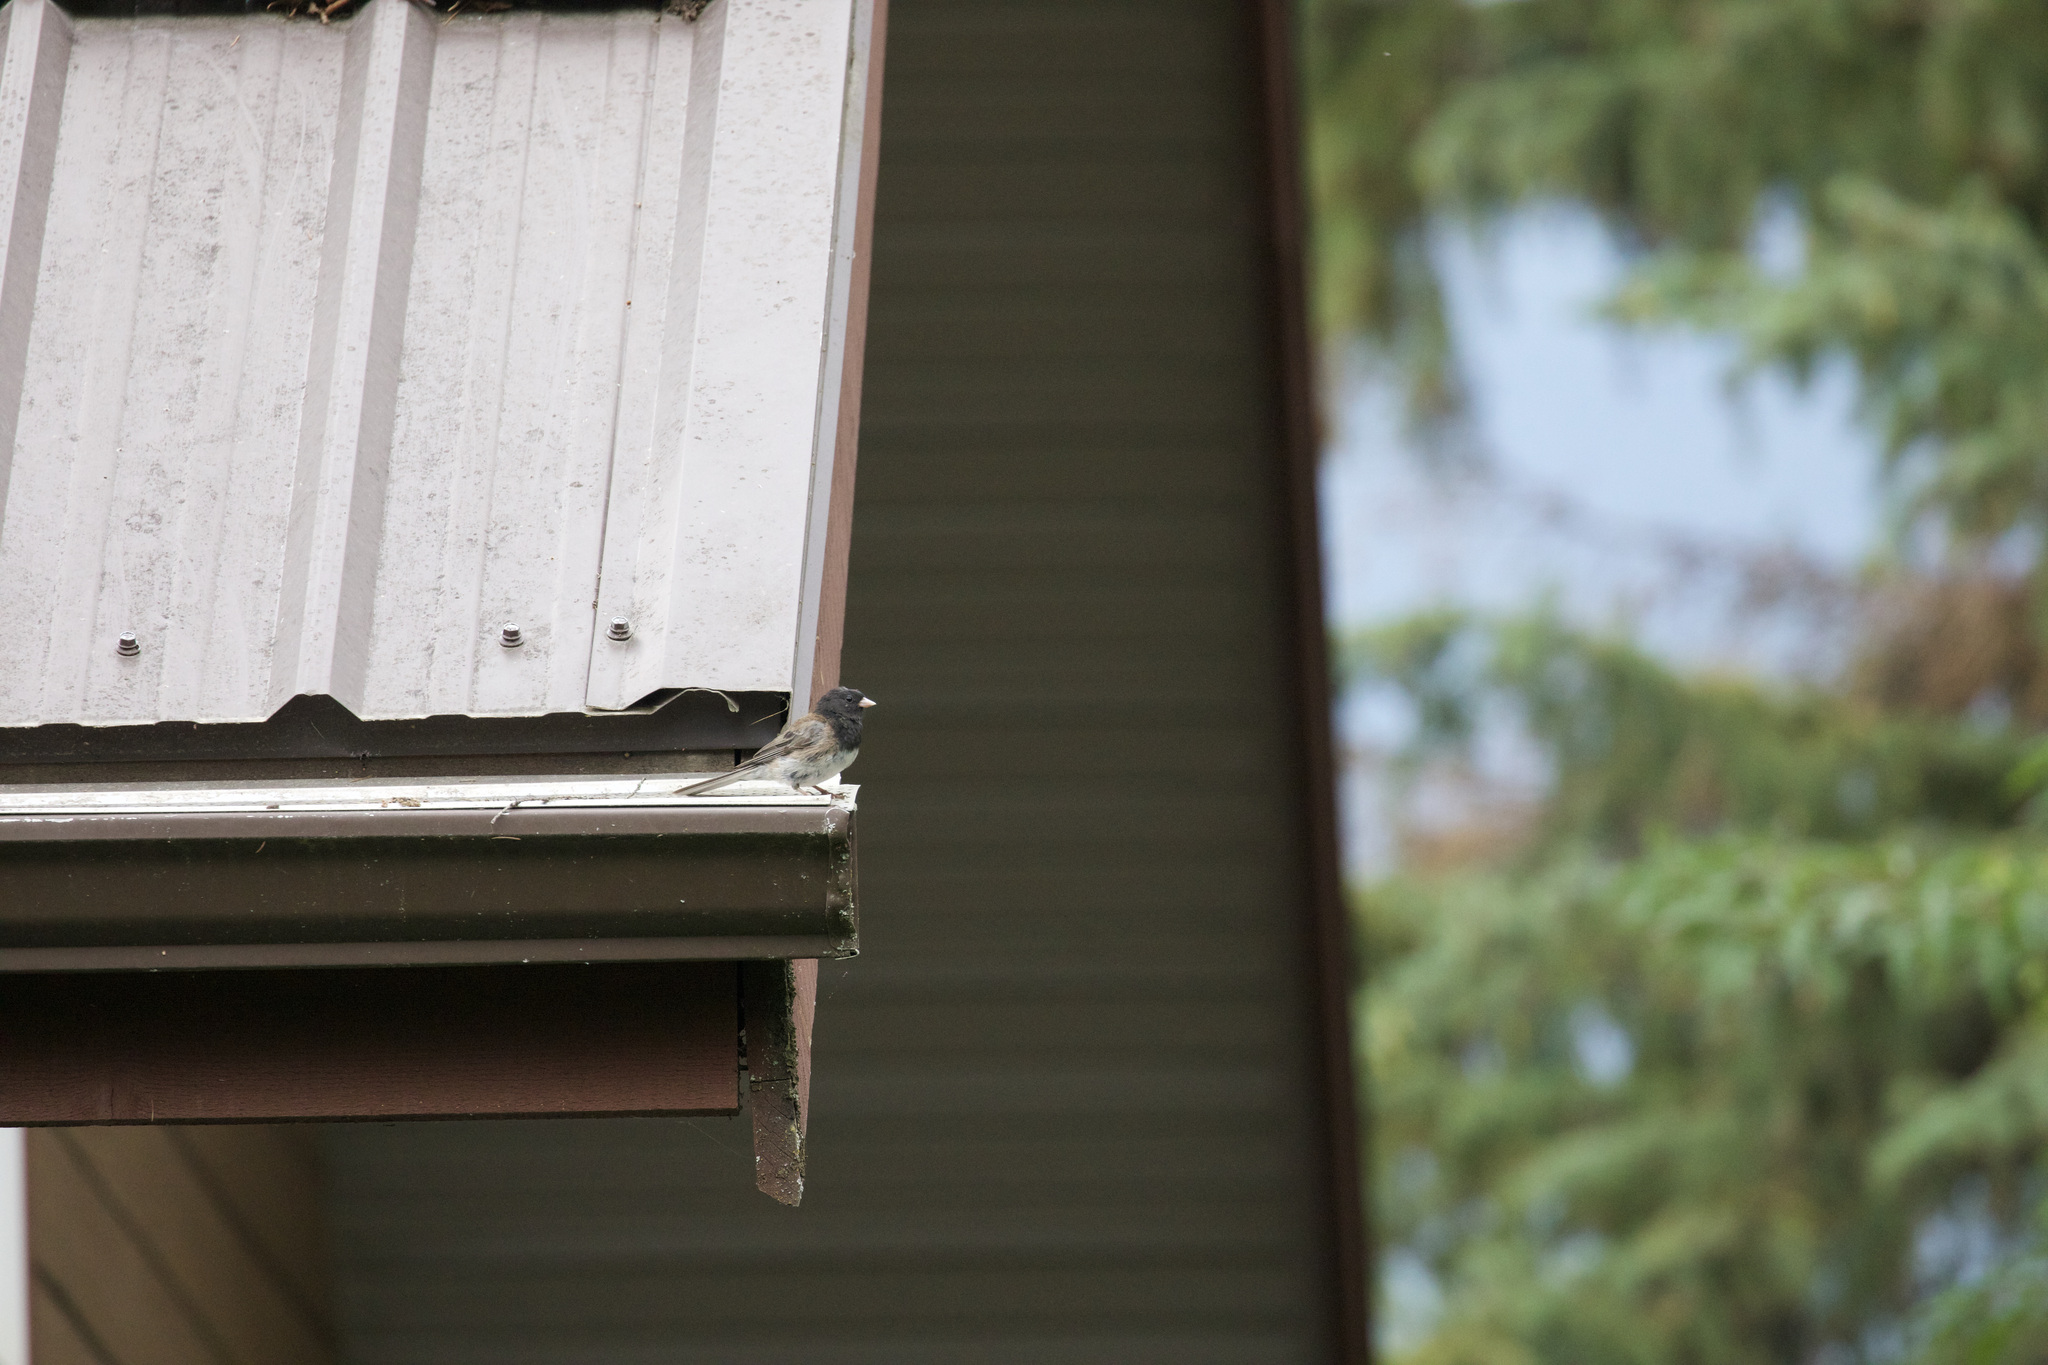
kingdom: Animalia
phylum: Chordata
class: Aves
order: Passeriformes
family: Passerellidae
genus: Junco
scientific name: Junco hyemalis
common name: Dark-eyed junco
